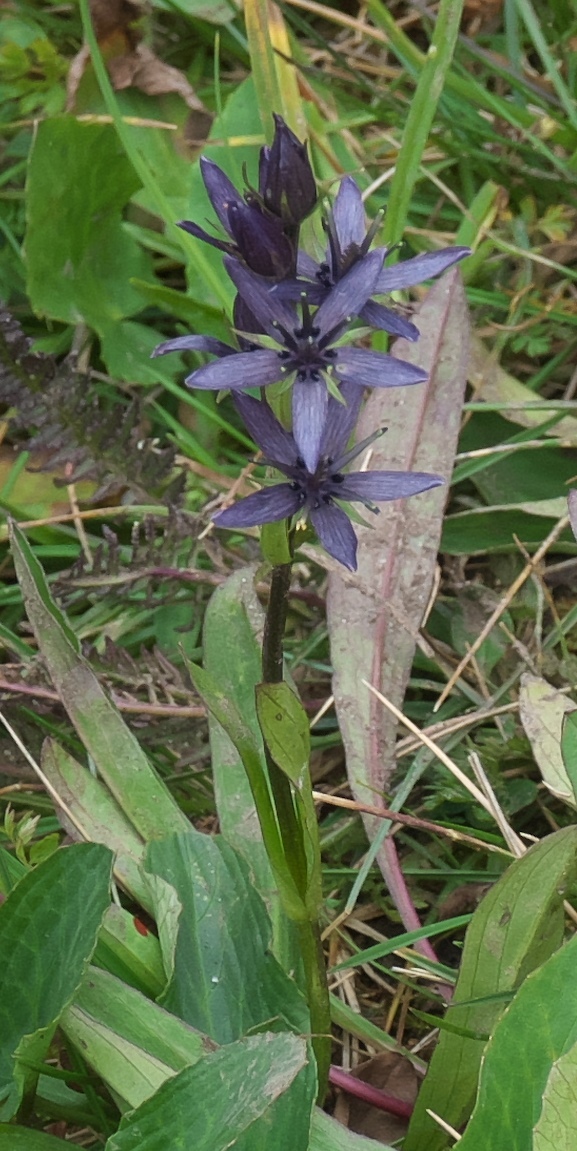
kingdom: Plantae
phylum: Tracheophyta
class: Magnoliopsida
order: Gentianales
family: Gentianaceae
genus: Swertia
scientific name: Swertia perennis
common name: Alpine bog swertia
